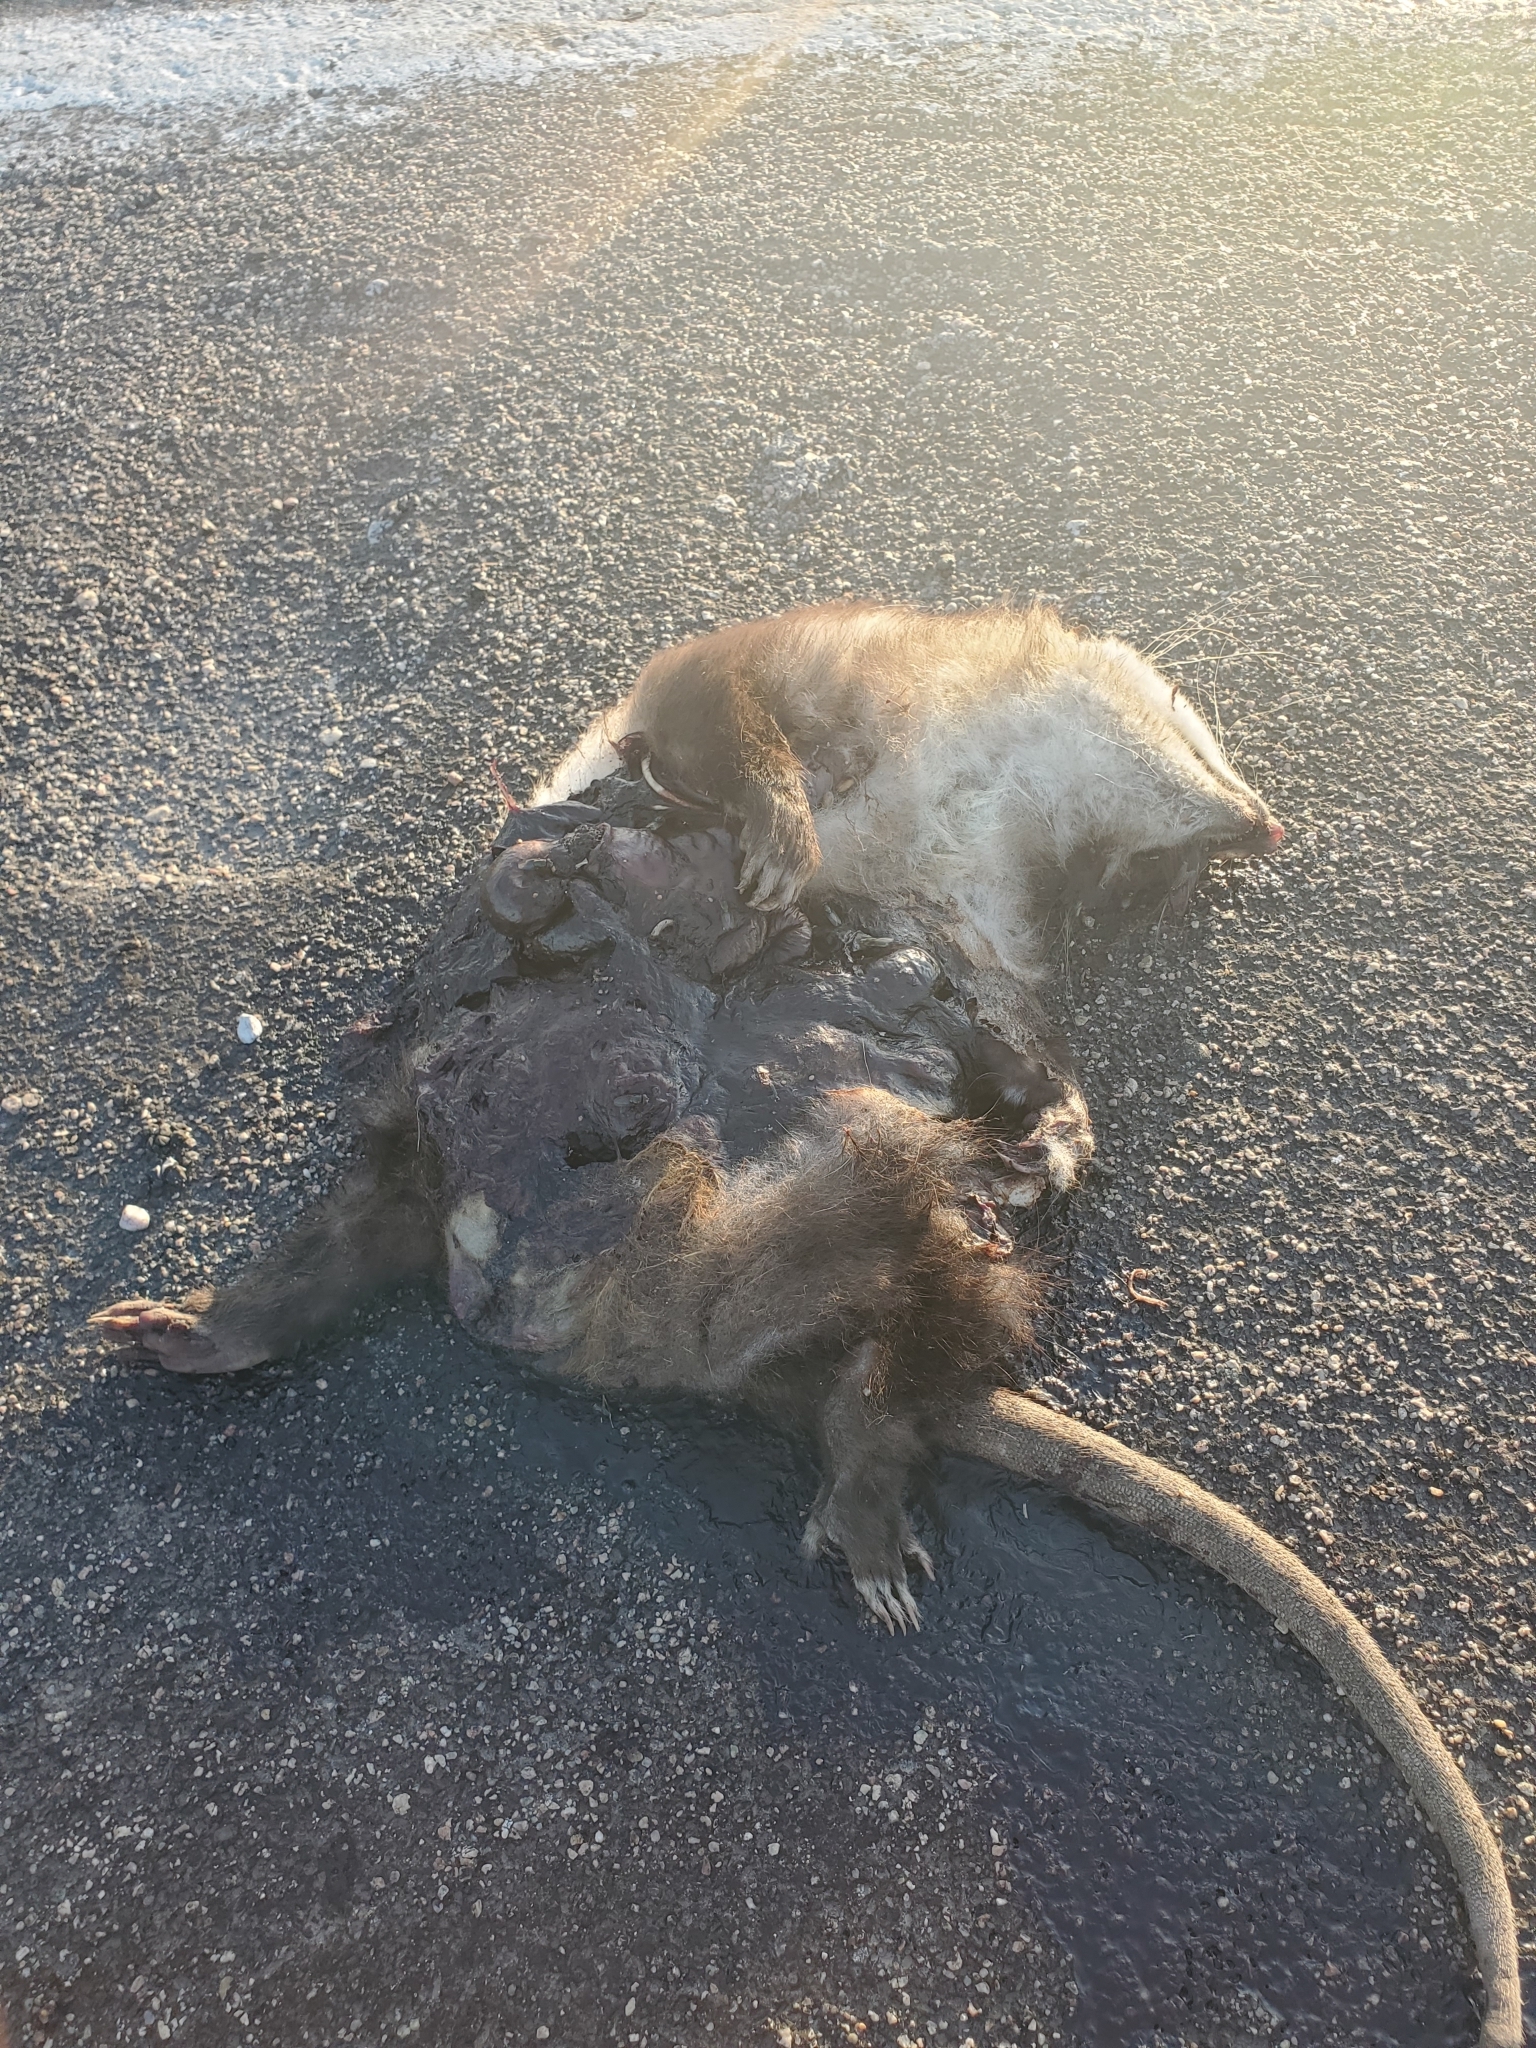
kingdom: Animalia
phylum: Chordata
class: Mammalia
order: Didelphimorphia
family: Didelphidae
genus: Didelphis
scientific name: Didelphis virginiana
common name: Virginia opossum
